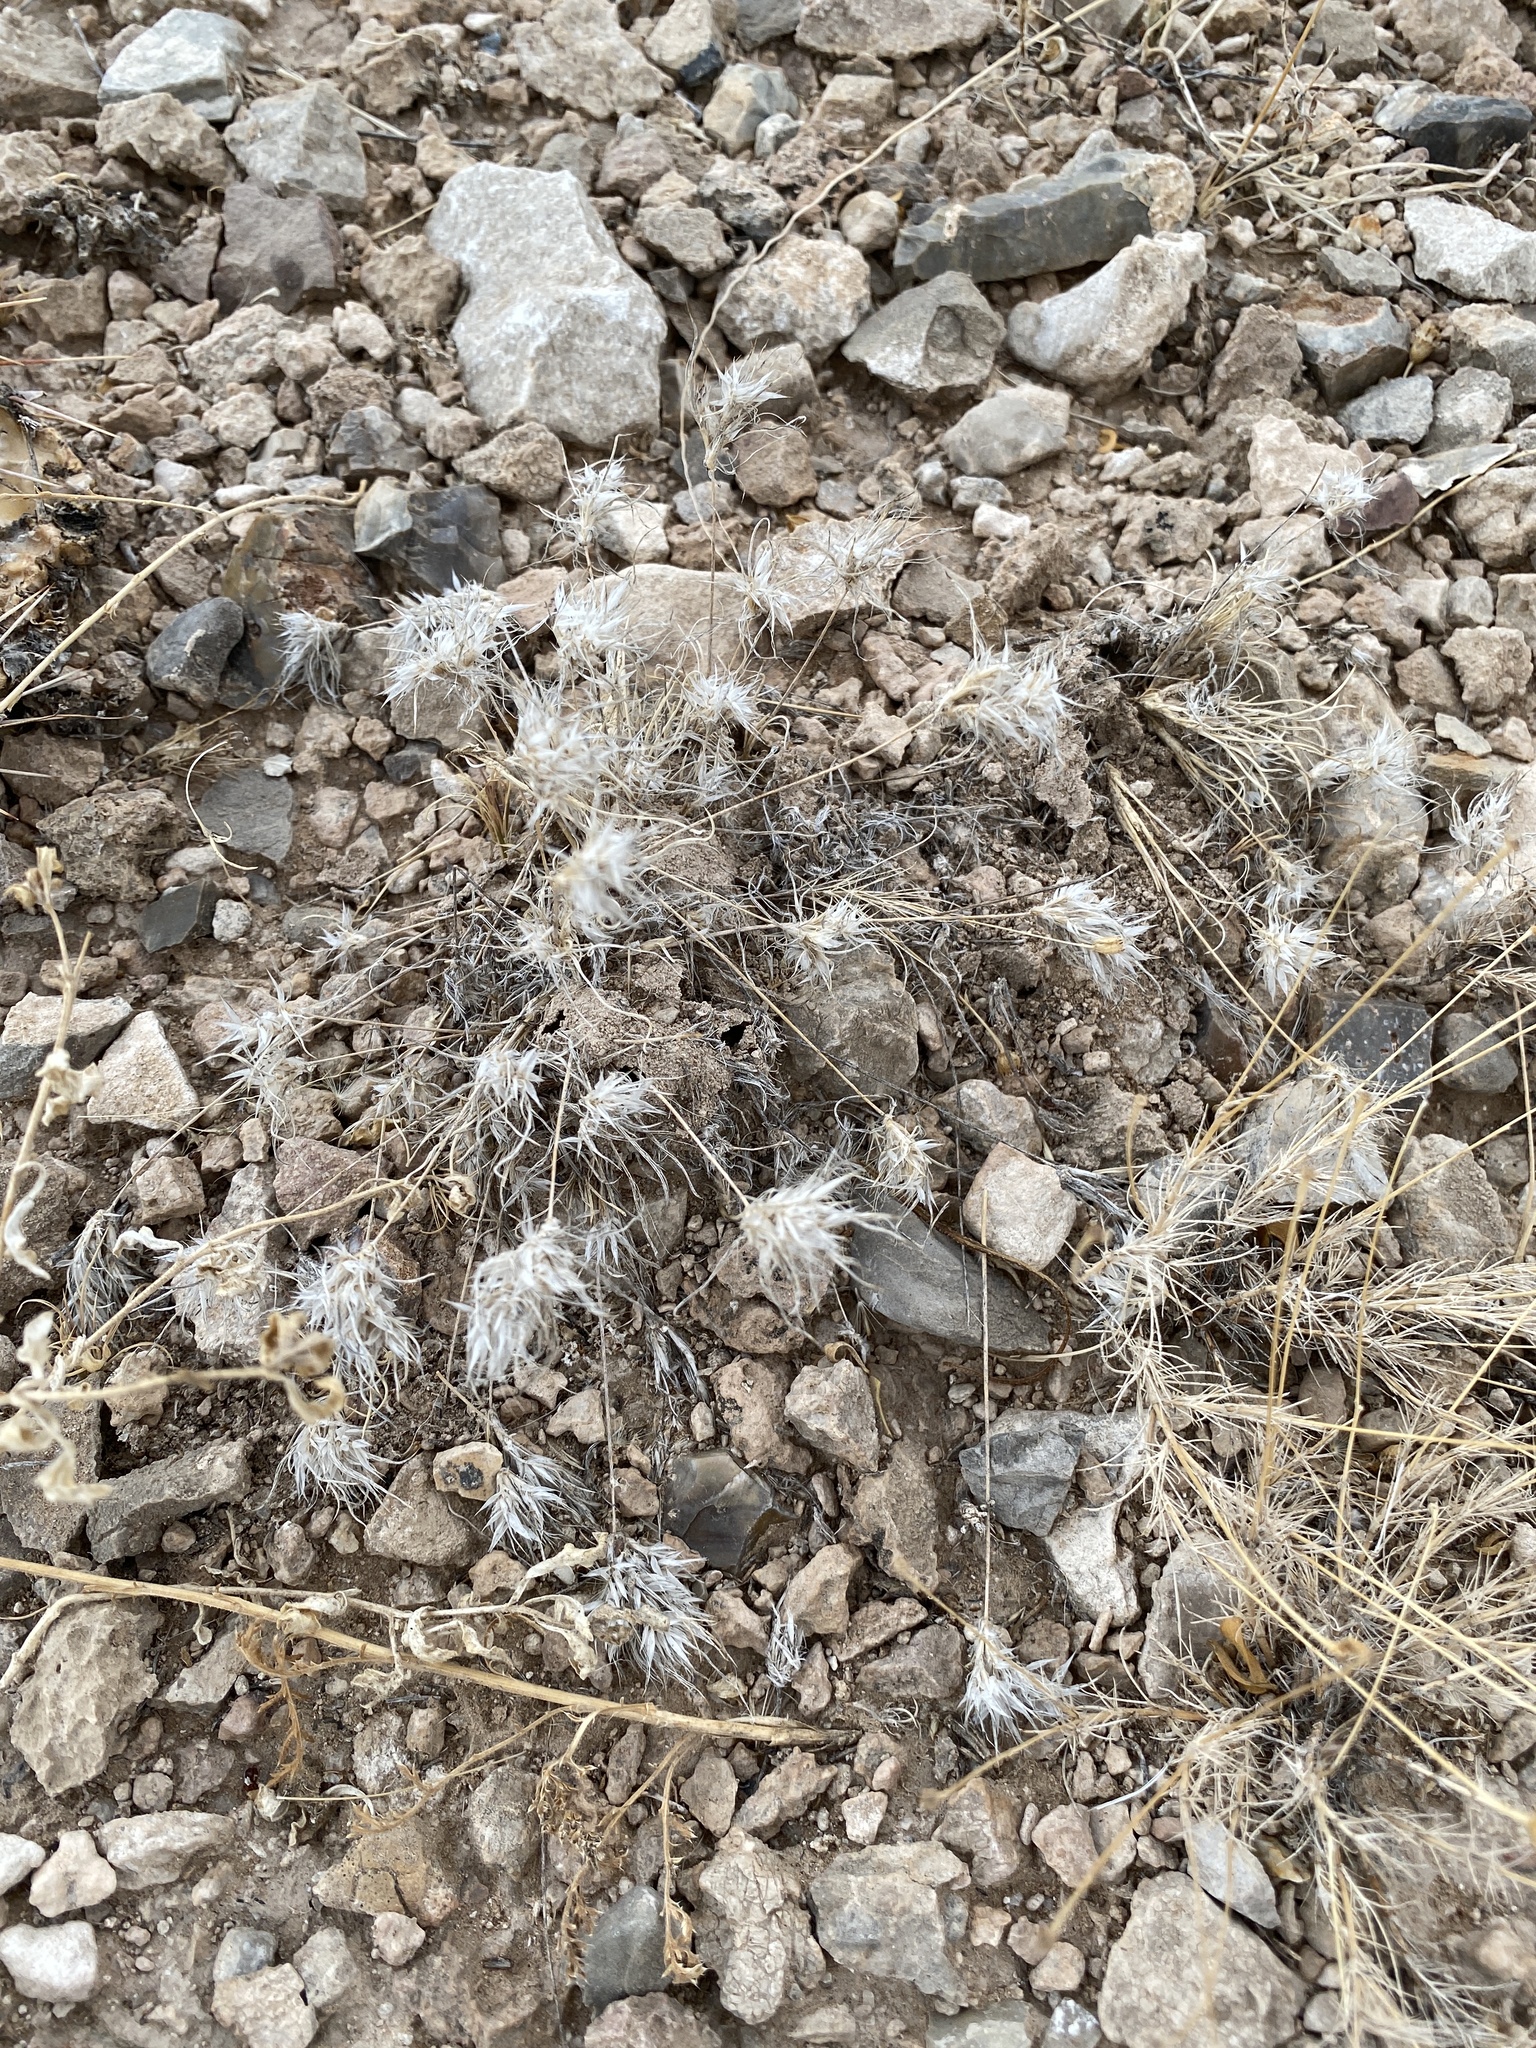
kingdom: Plantae
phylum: Tracheophyta
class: Liliopsida
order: Poales
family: Poaceae
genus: Dasyochloa
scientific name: Dasyochloa pulchella
